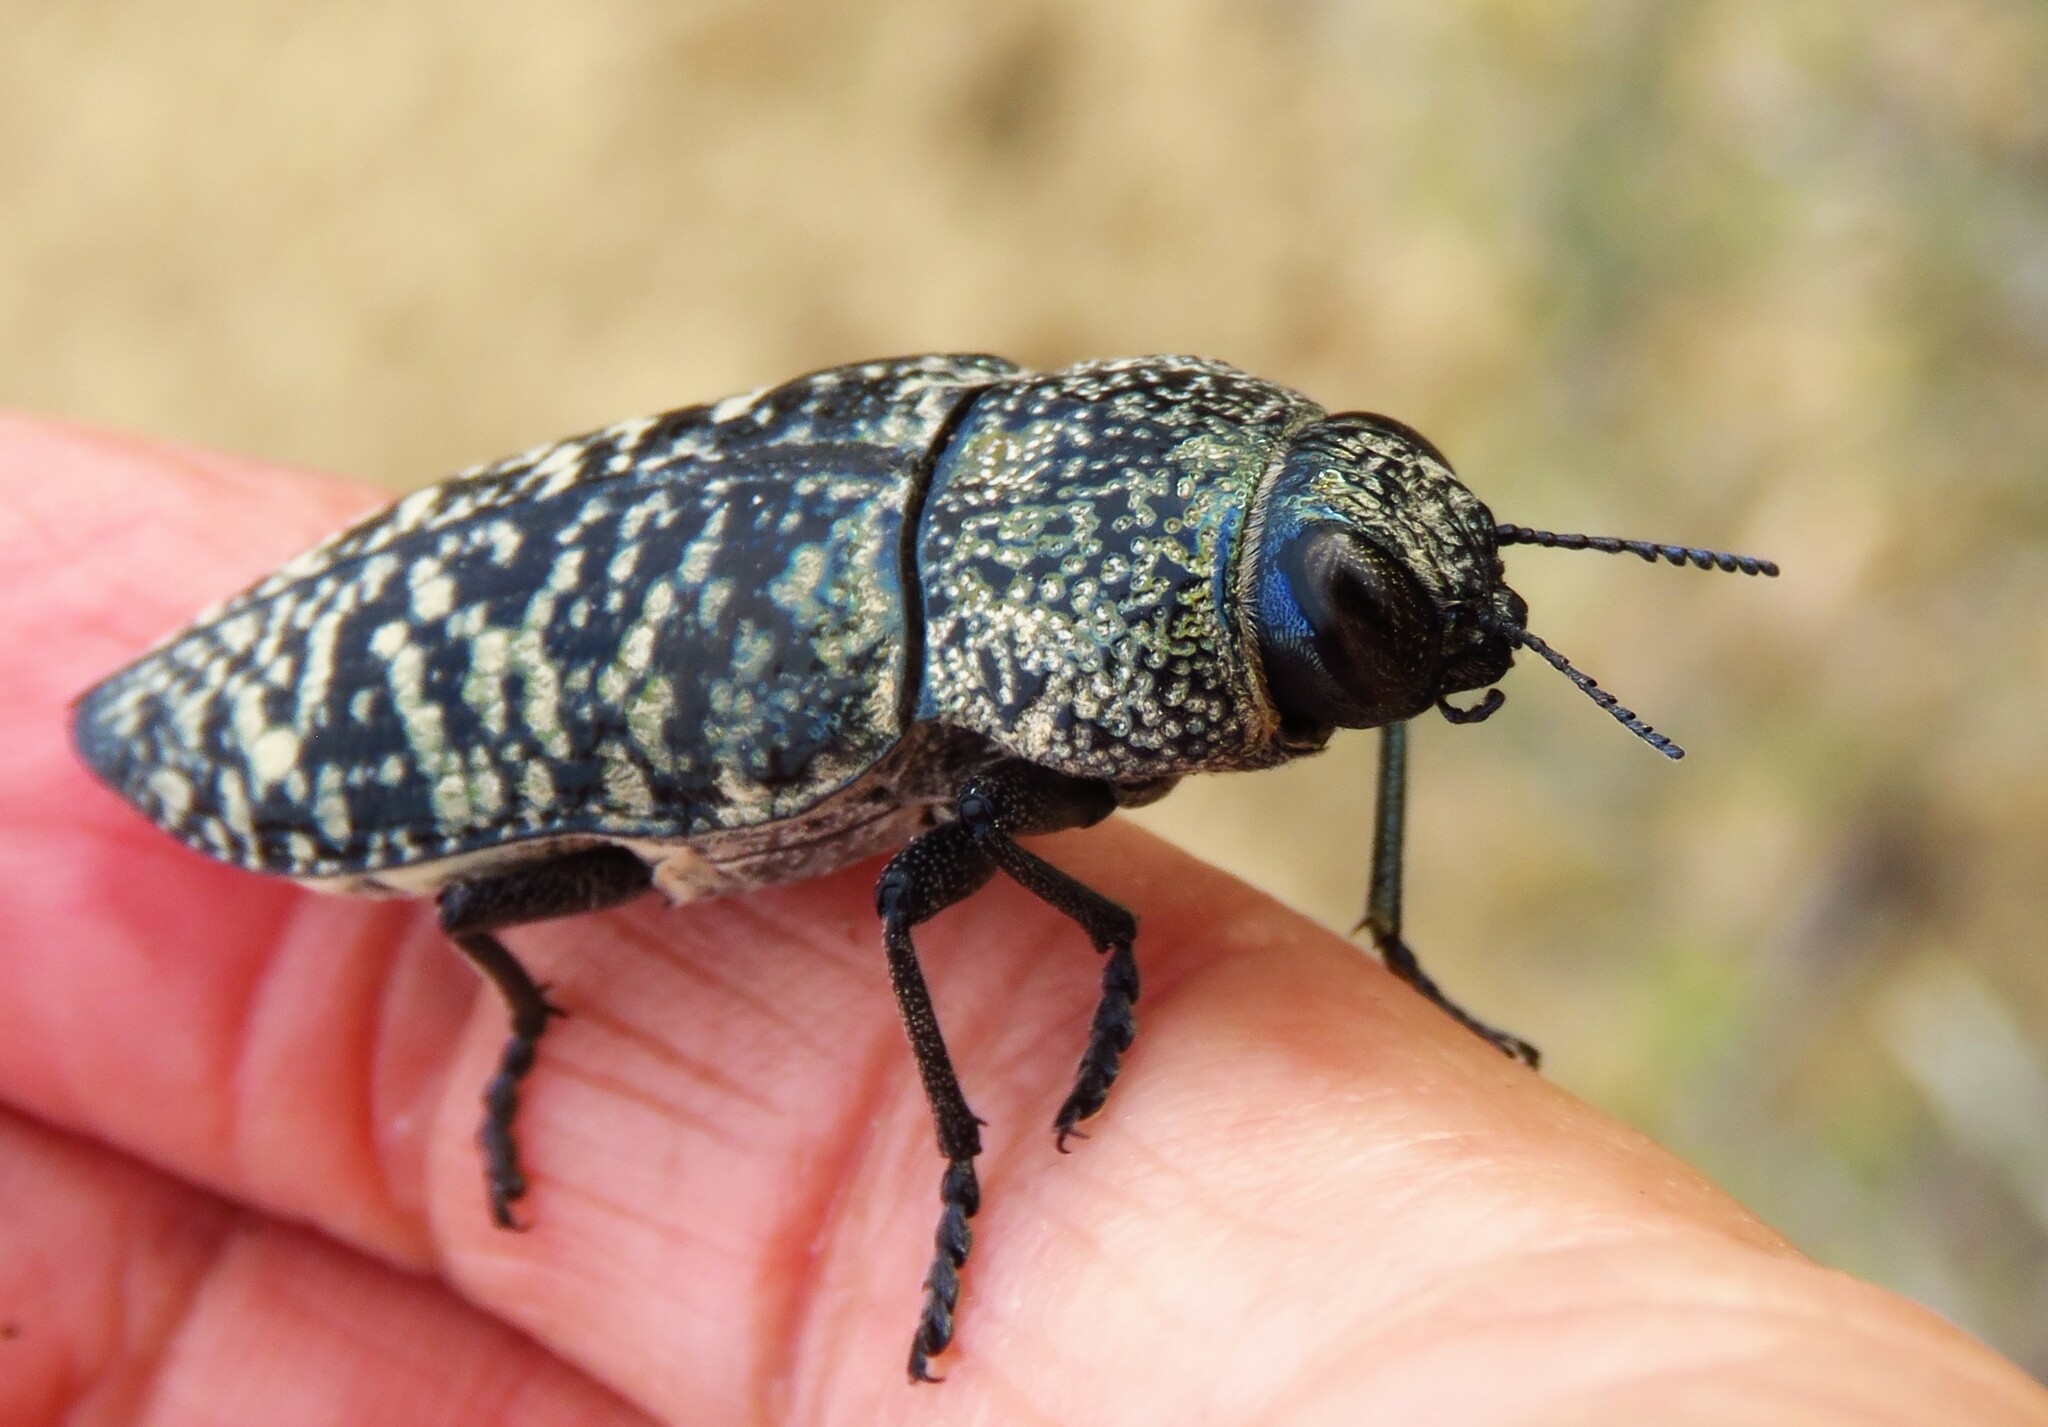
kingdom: Animalia
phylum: Arthropoda
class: Insecta
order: Coleoptera
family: Buprestidae
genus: Lampetis
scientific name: Lampetis drummondi
